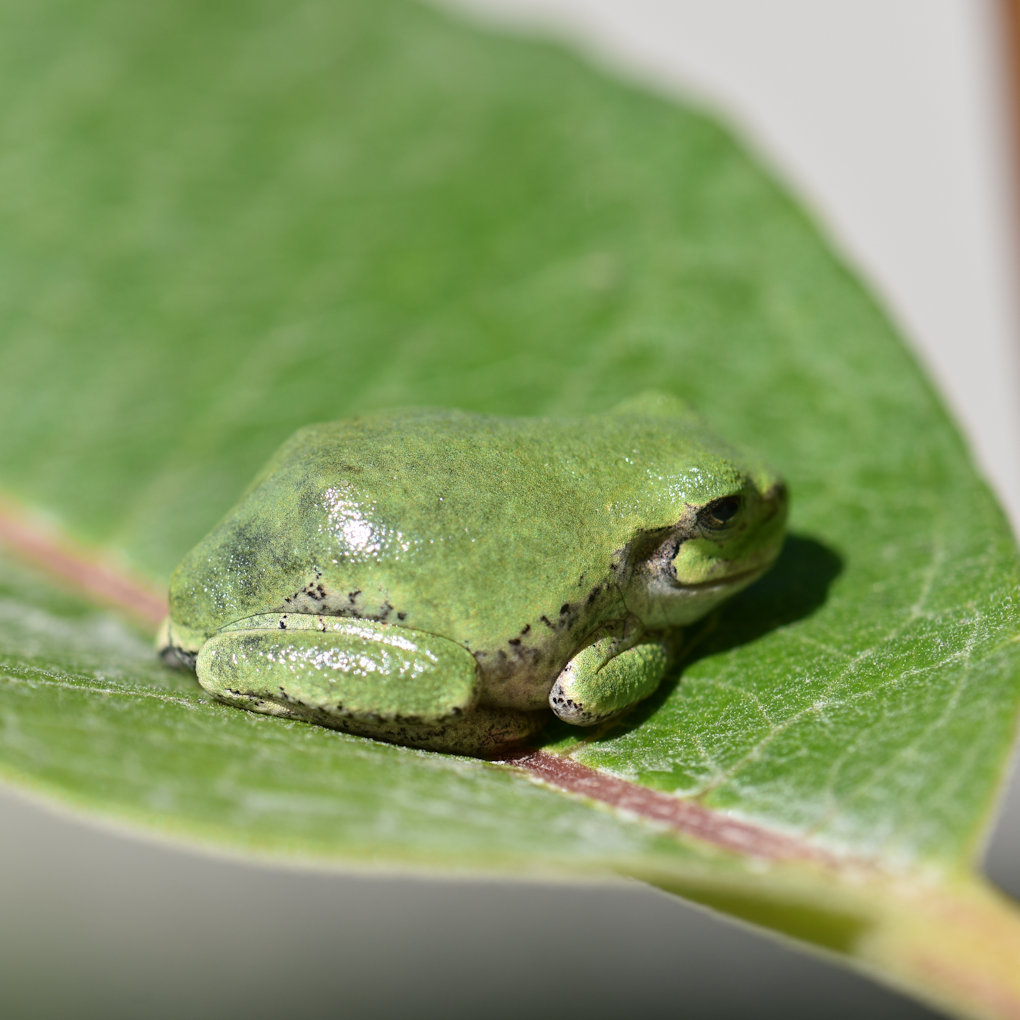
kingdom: Animalia
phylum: Chordata
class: Amphibia
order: Anura
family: Hylidae
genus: Dryophytes
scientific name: Dryophytes versicolor
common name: Gray treefrog
